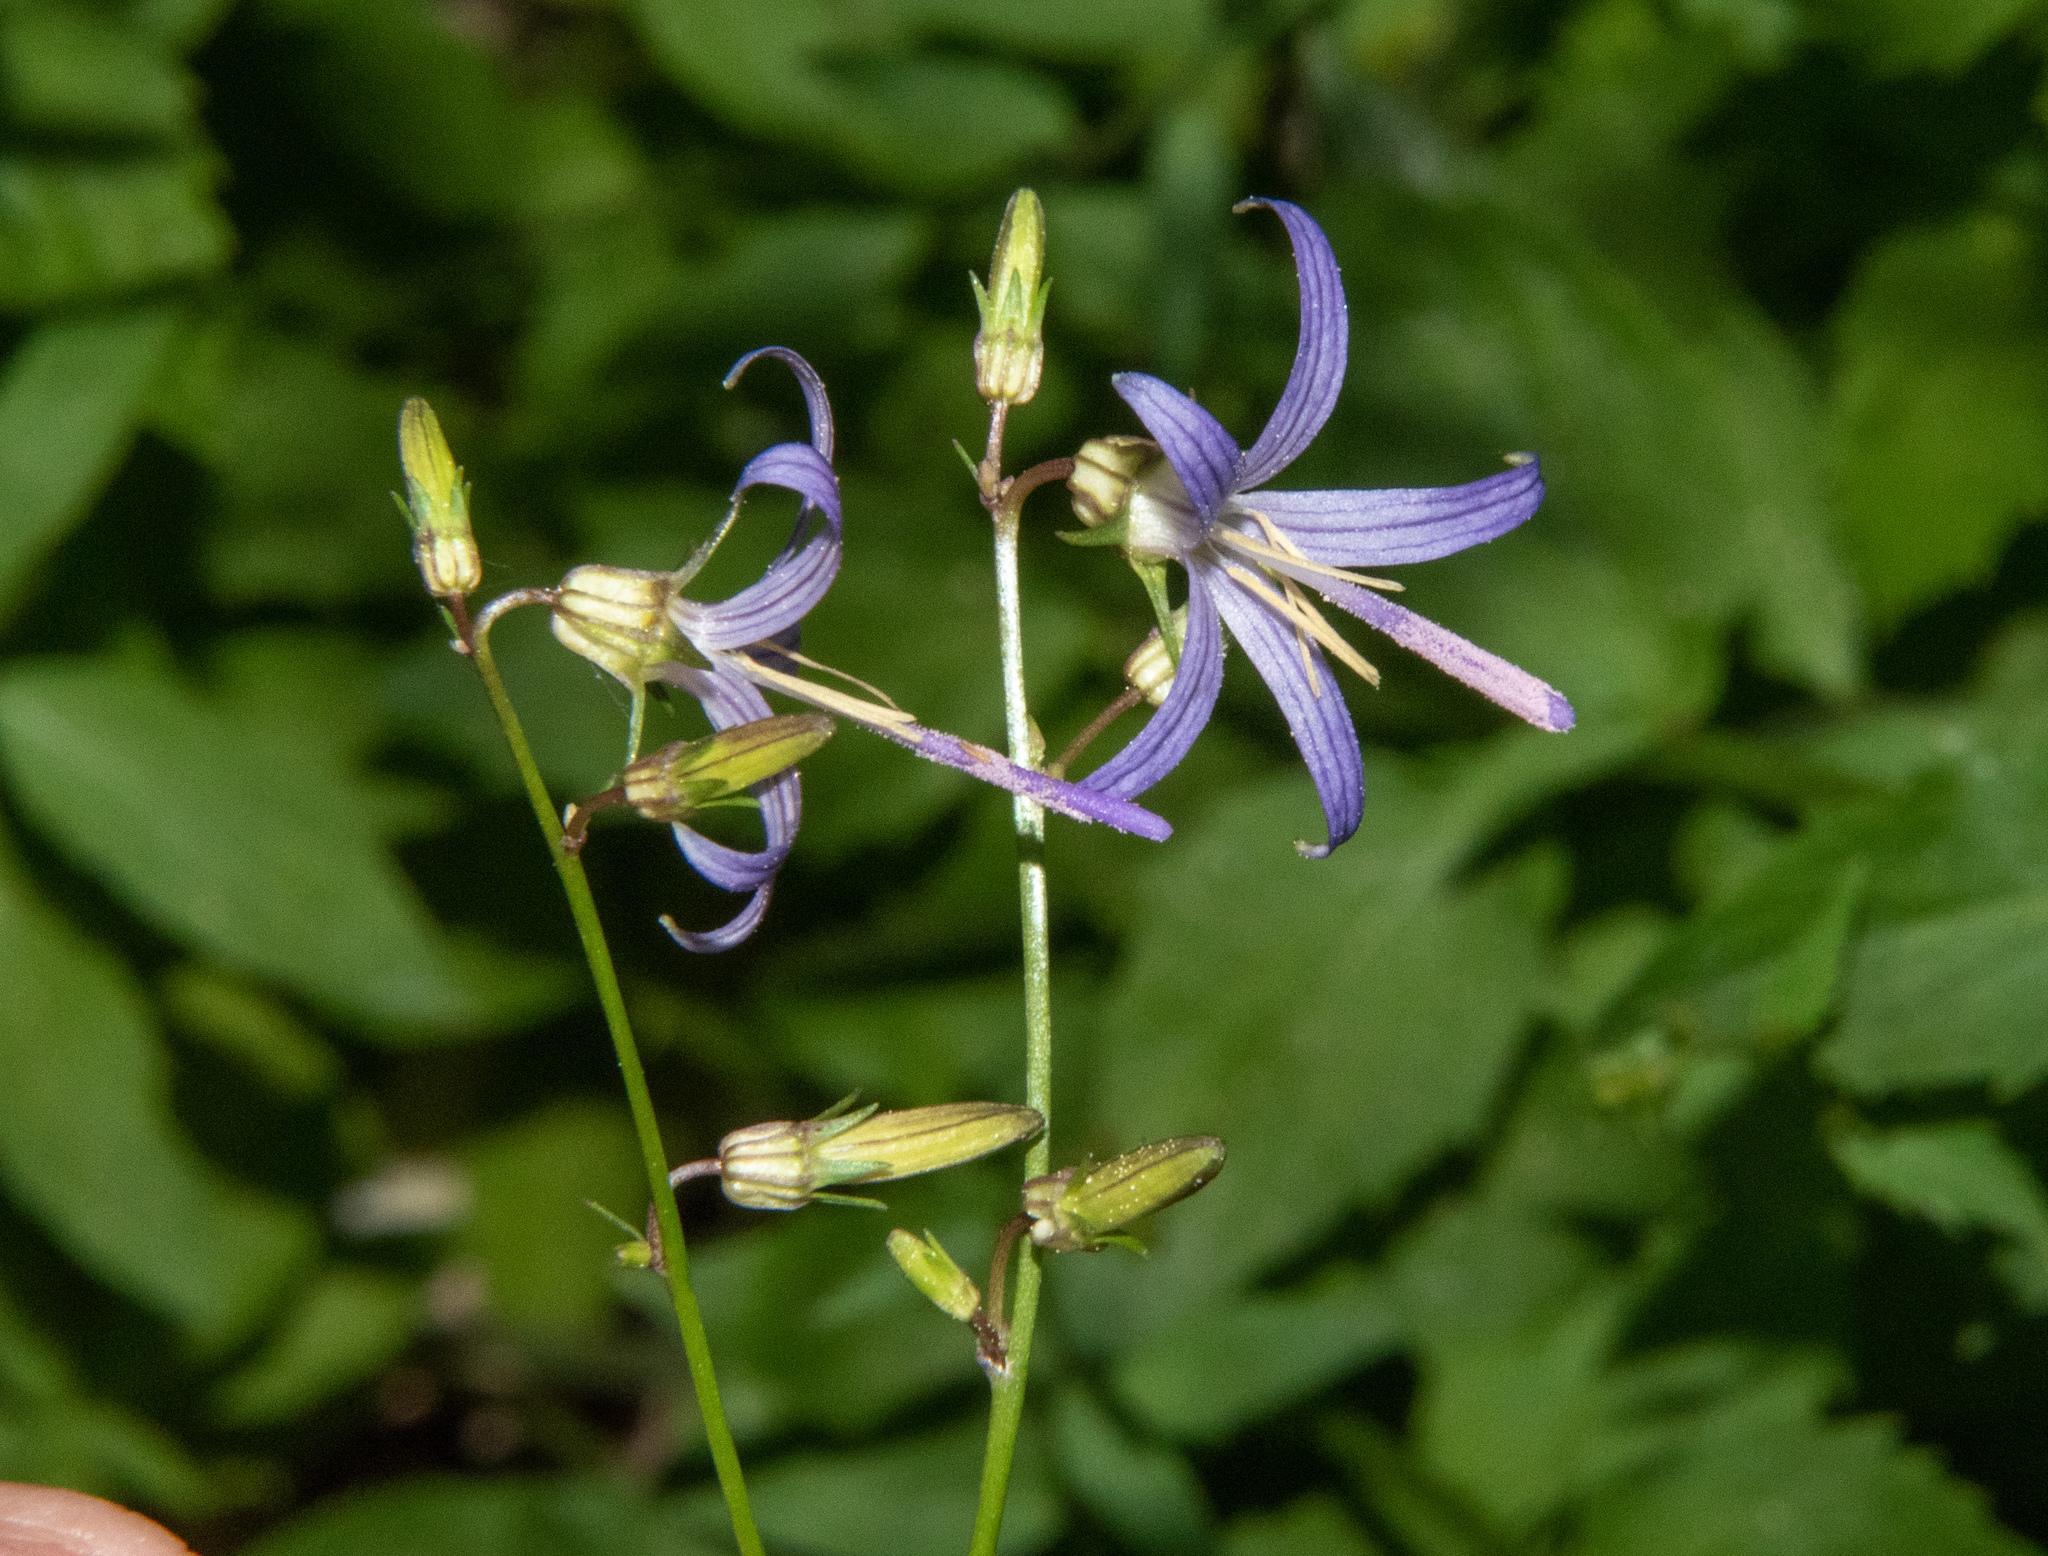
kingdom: Plantae
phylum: Tracheophyta
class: Magnoliopsida
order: Asterales
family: Campanulaceae
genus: Smithiastrum
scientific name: Smithiastrum prenanthoides
